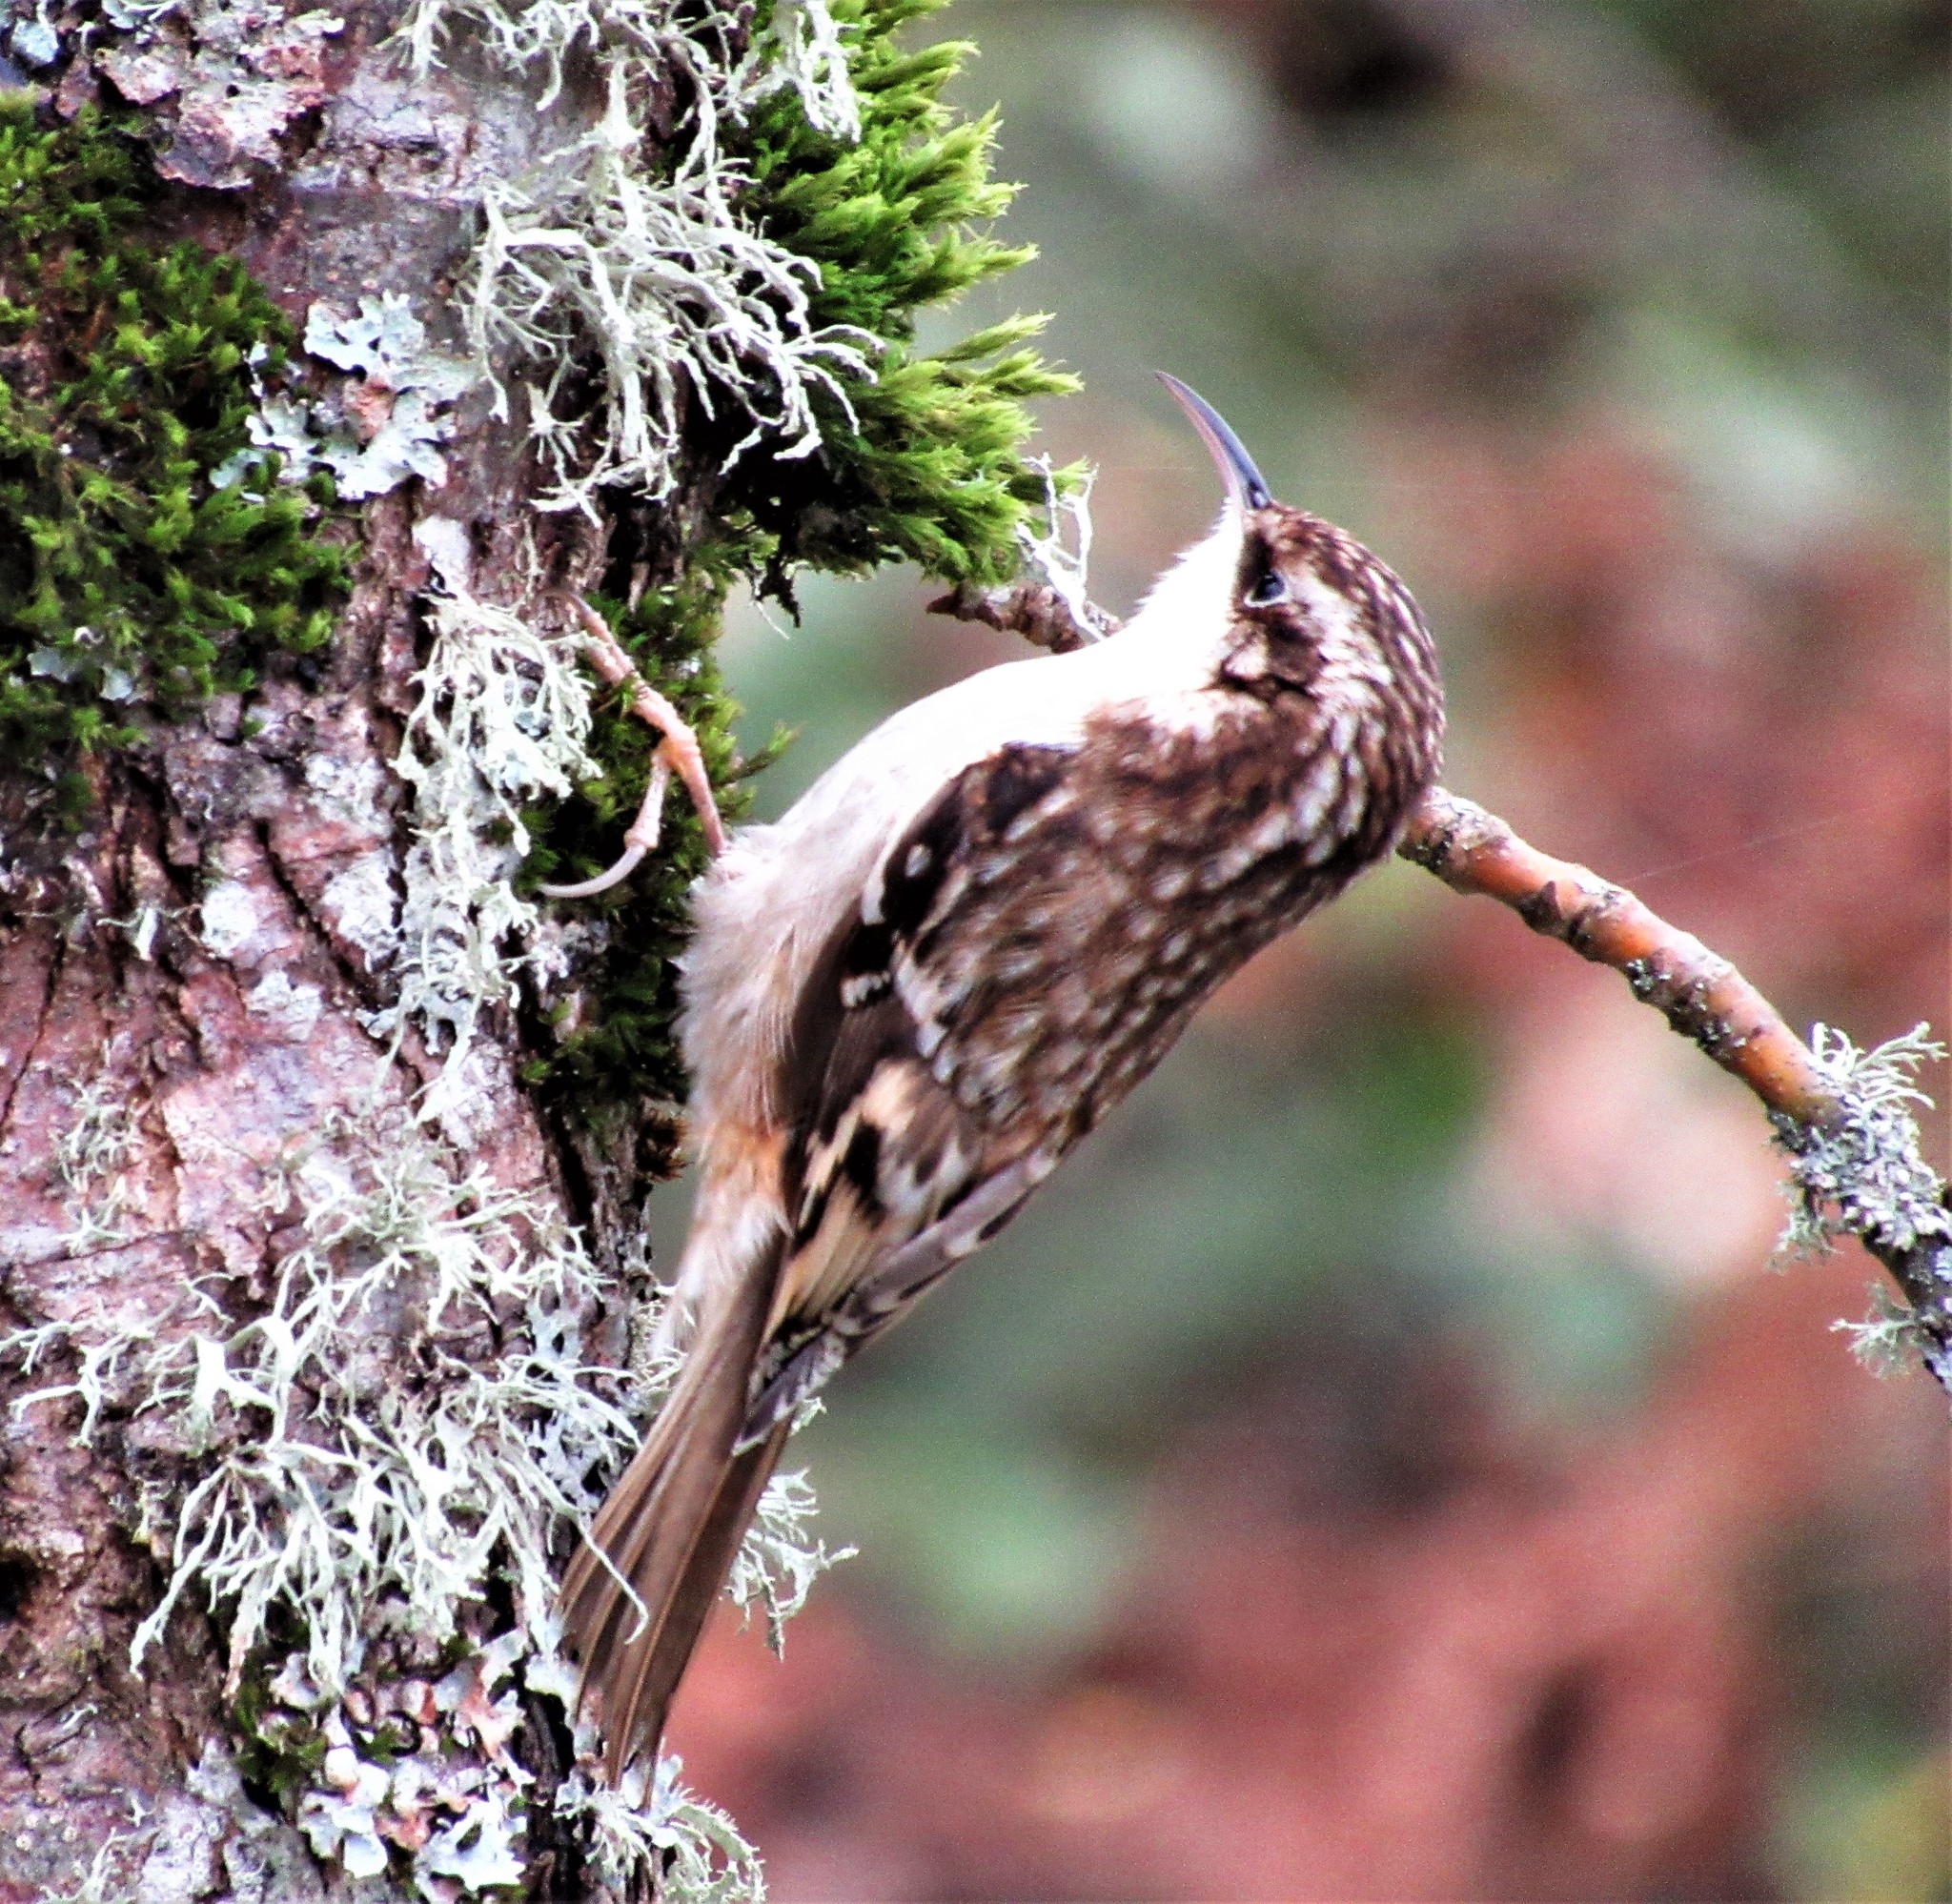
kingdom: Animalia
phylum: Chordata
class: Aves
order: Passeriformes
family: Certhiidae
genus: Certhia
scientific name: Certhia americana
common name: Brown creeper
